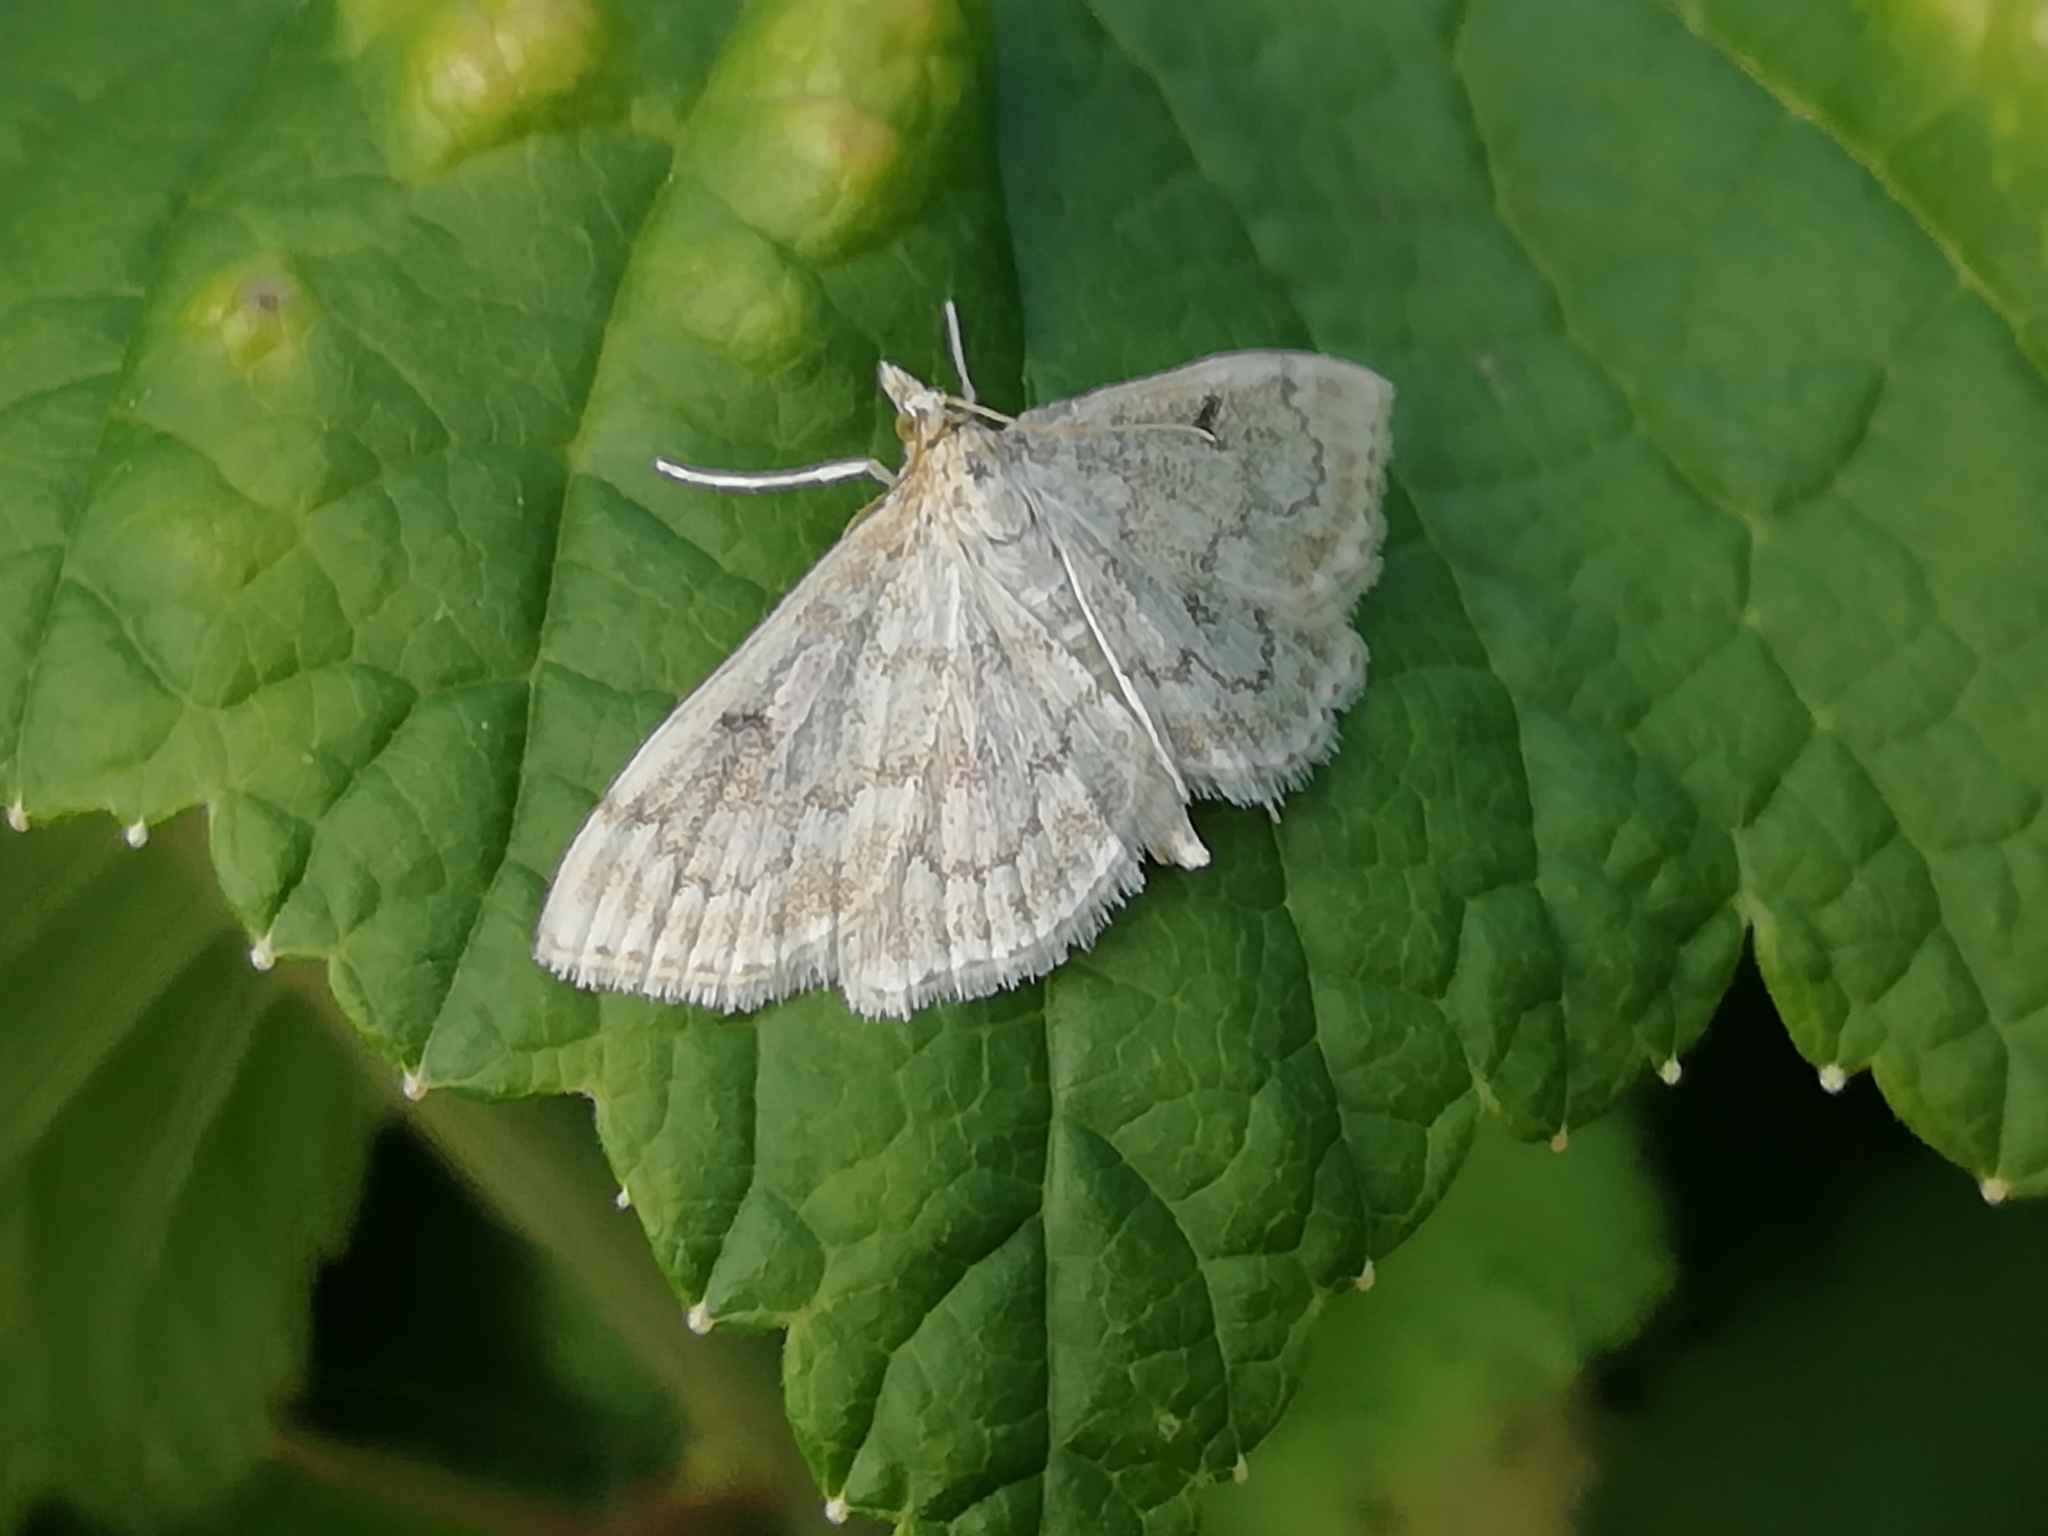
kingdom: Animalia
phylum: Arthropoda
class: Insecta
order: Lepidoptera
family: Crambidae
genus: Anania
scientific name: Anania perlucidalis
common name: Fenland pearl
